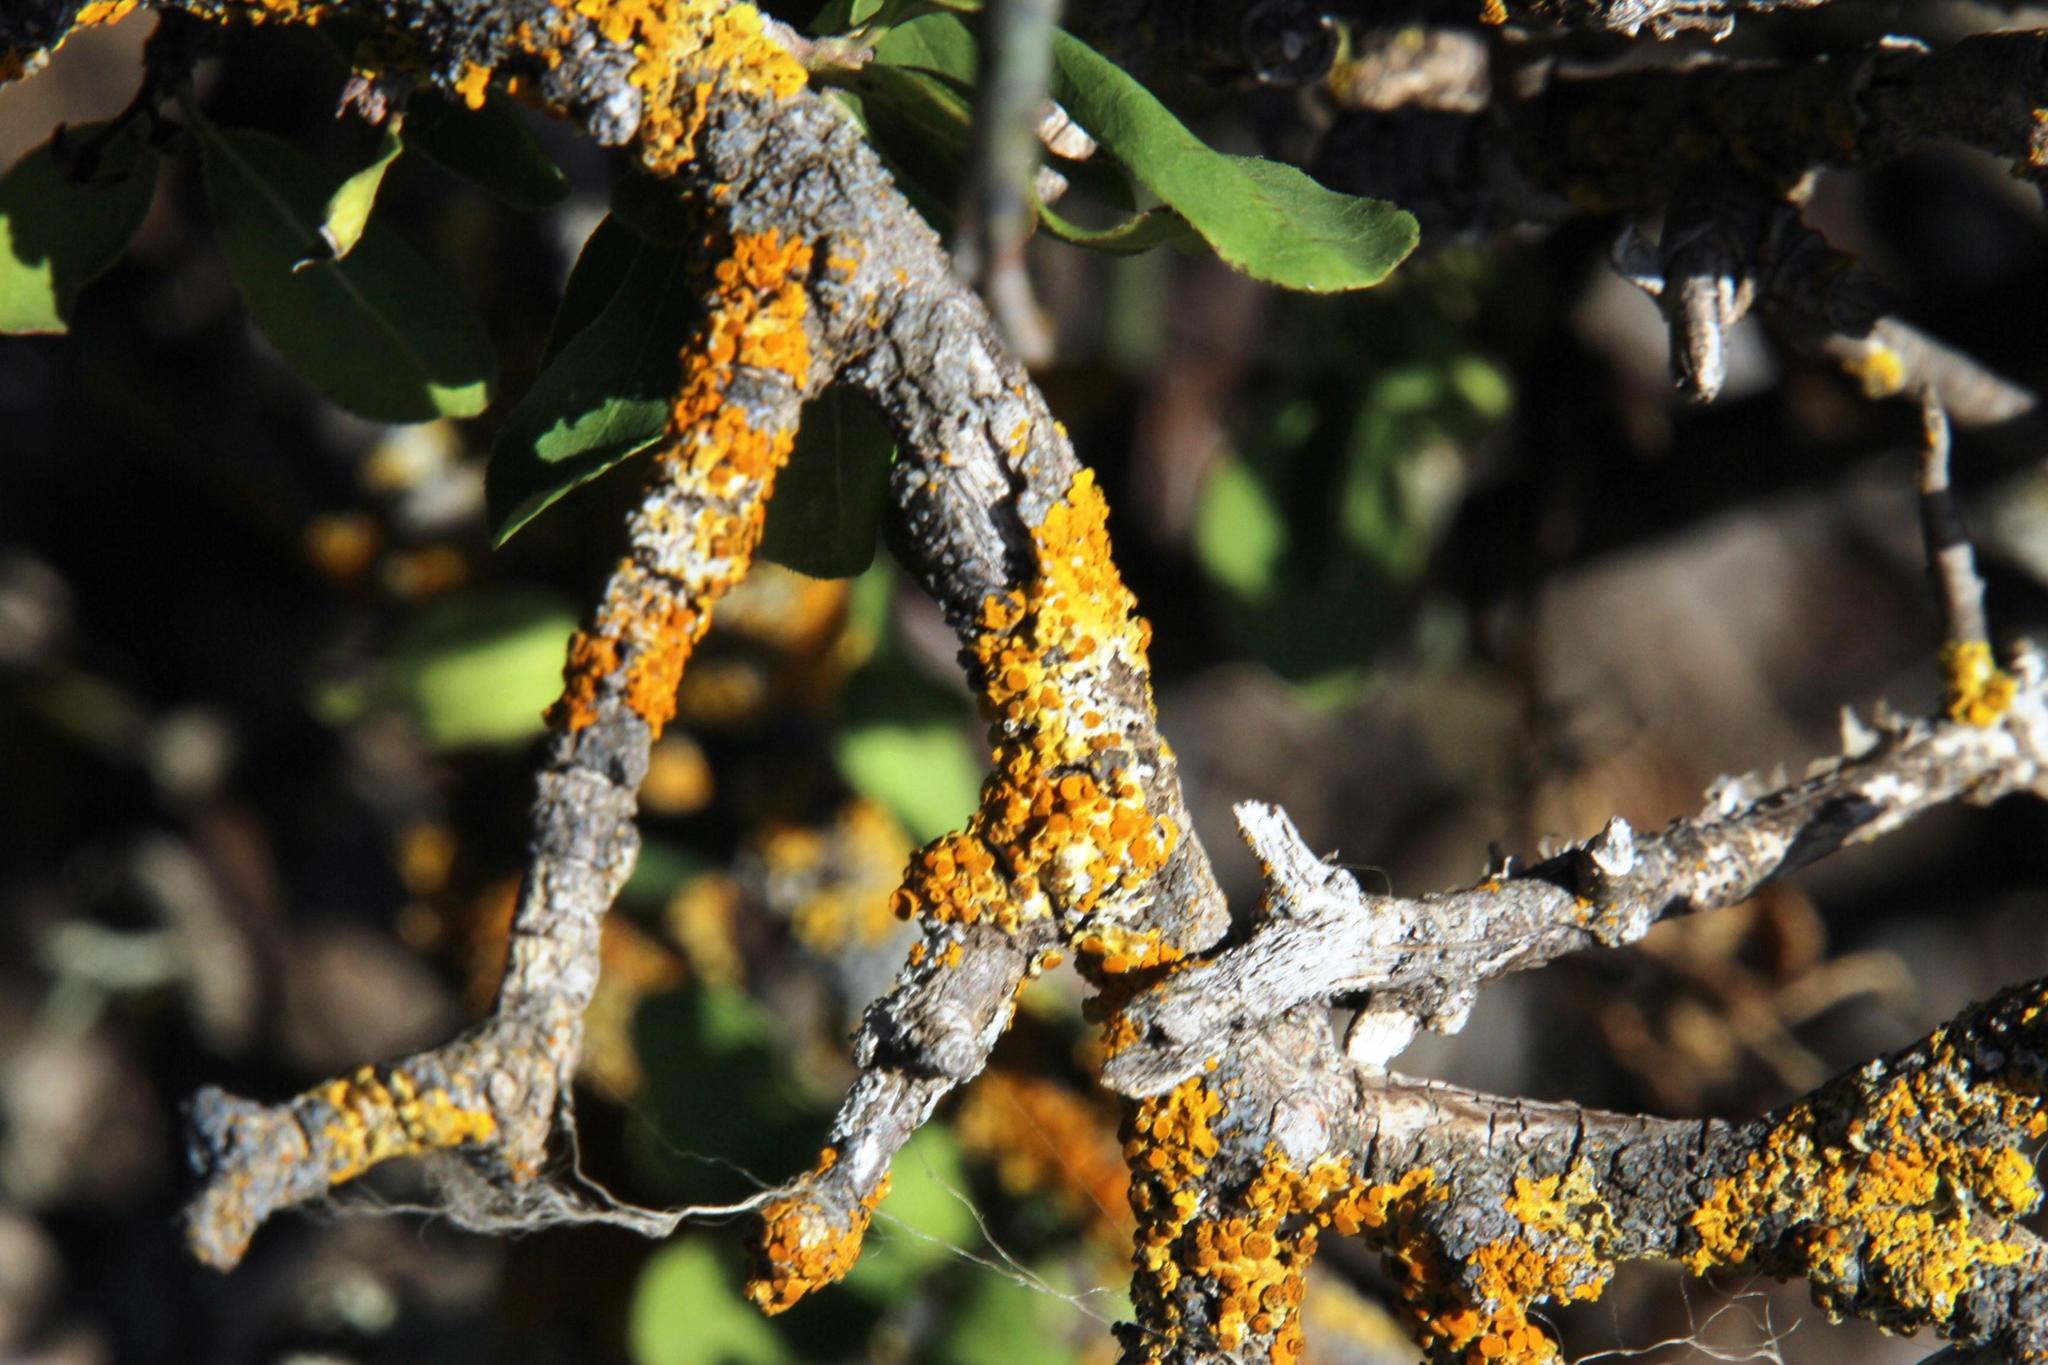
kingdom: Plantae
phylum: Tracheophyta
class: Magnoliopsida
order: Boraginales
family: Ehretiaceae
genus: Ehretia
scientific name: Ehretia rigida
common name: Cape lilac
